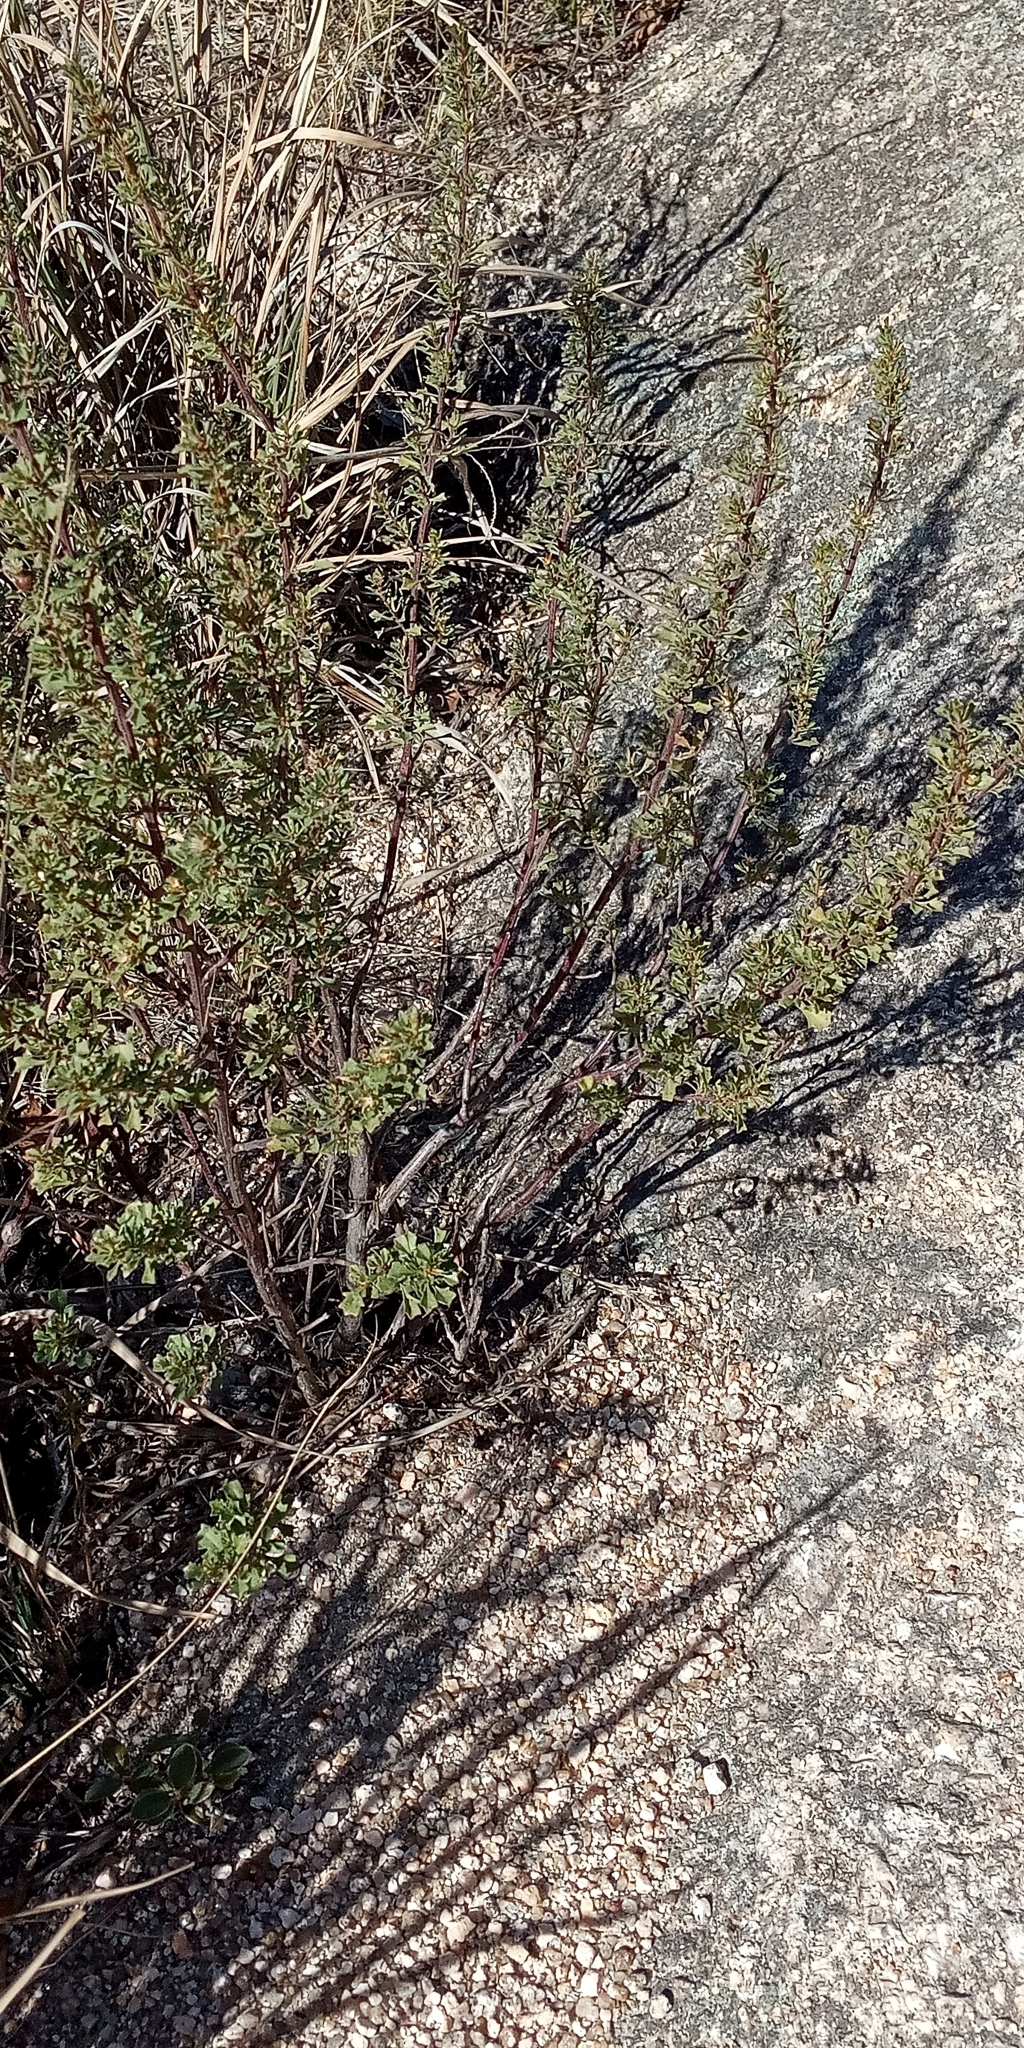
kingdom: Plantae
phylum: Tracheophyta
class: Magnoliopsida
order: Asterales
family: Asteraceae
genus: Baccharis
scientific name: Baccharis flabellata
